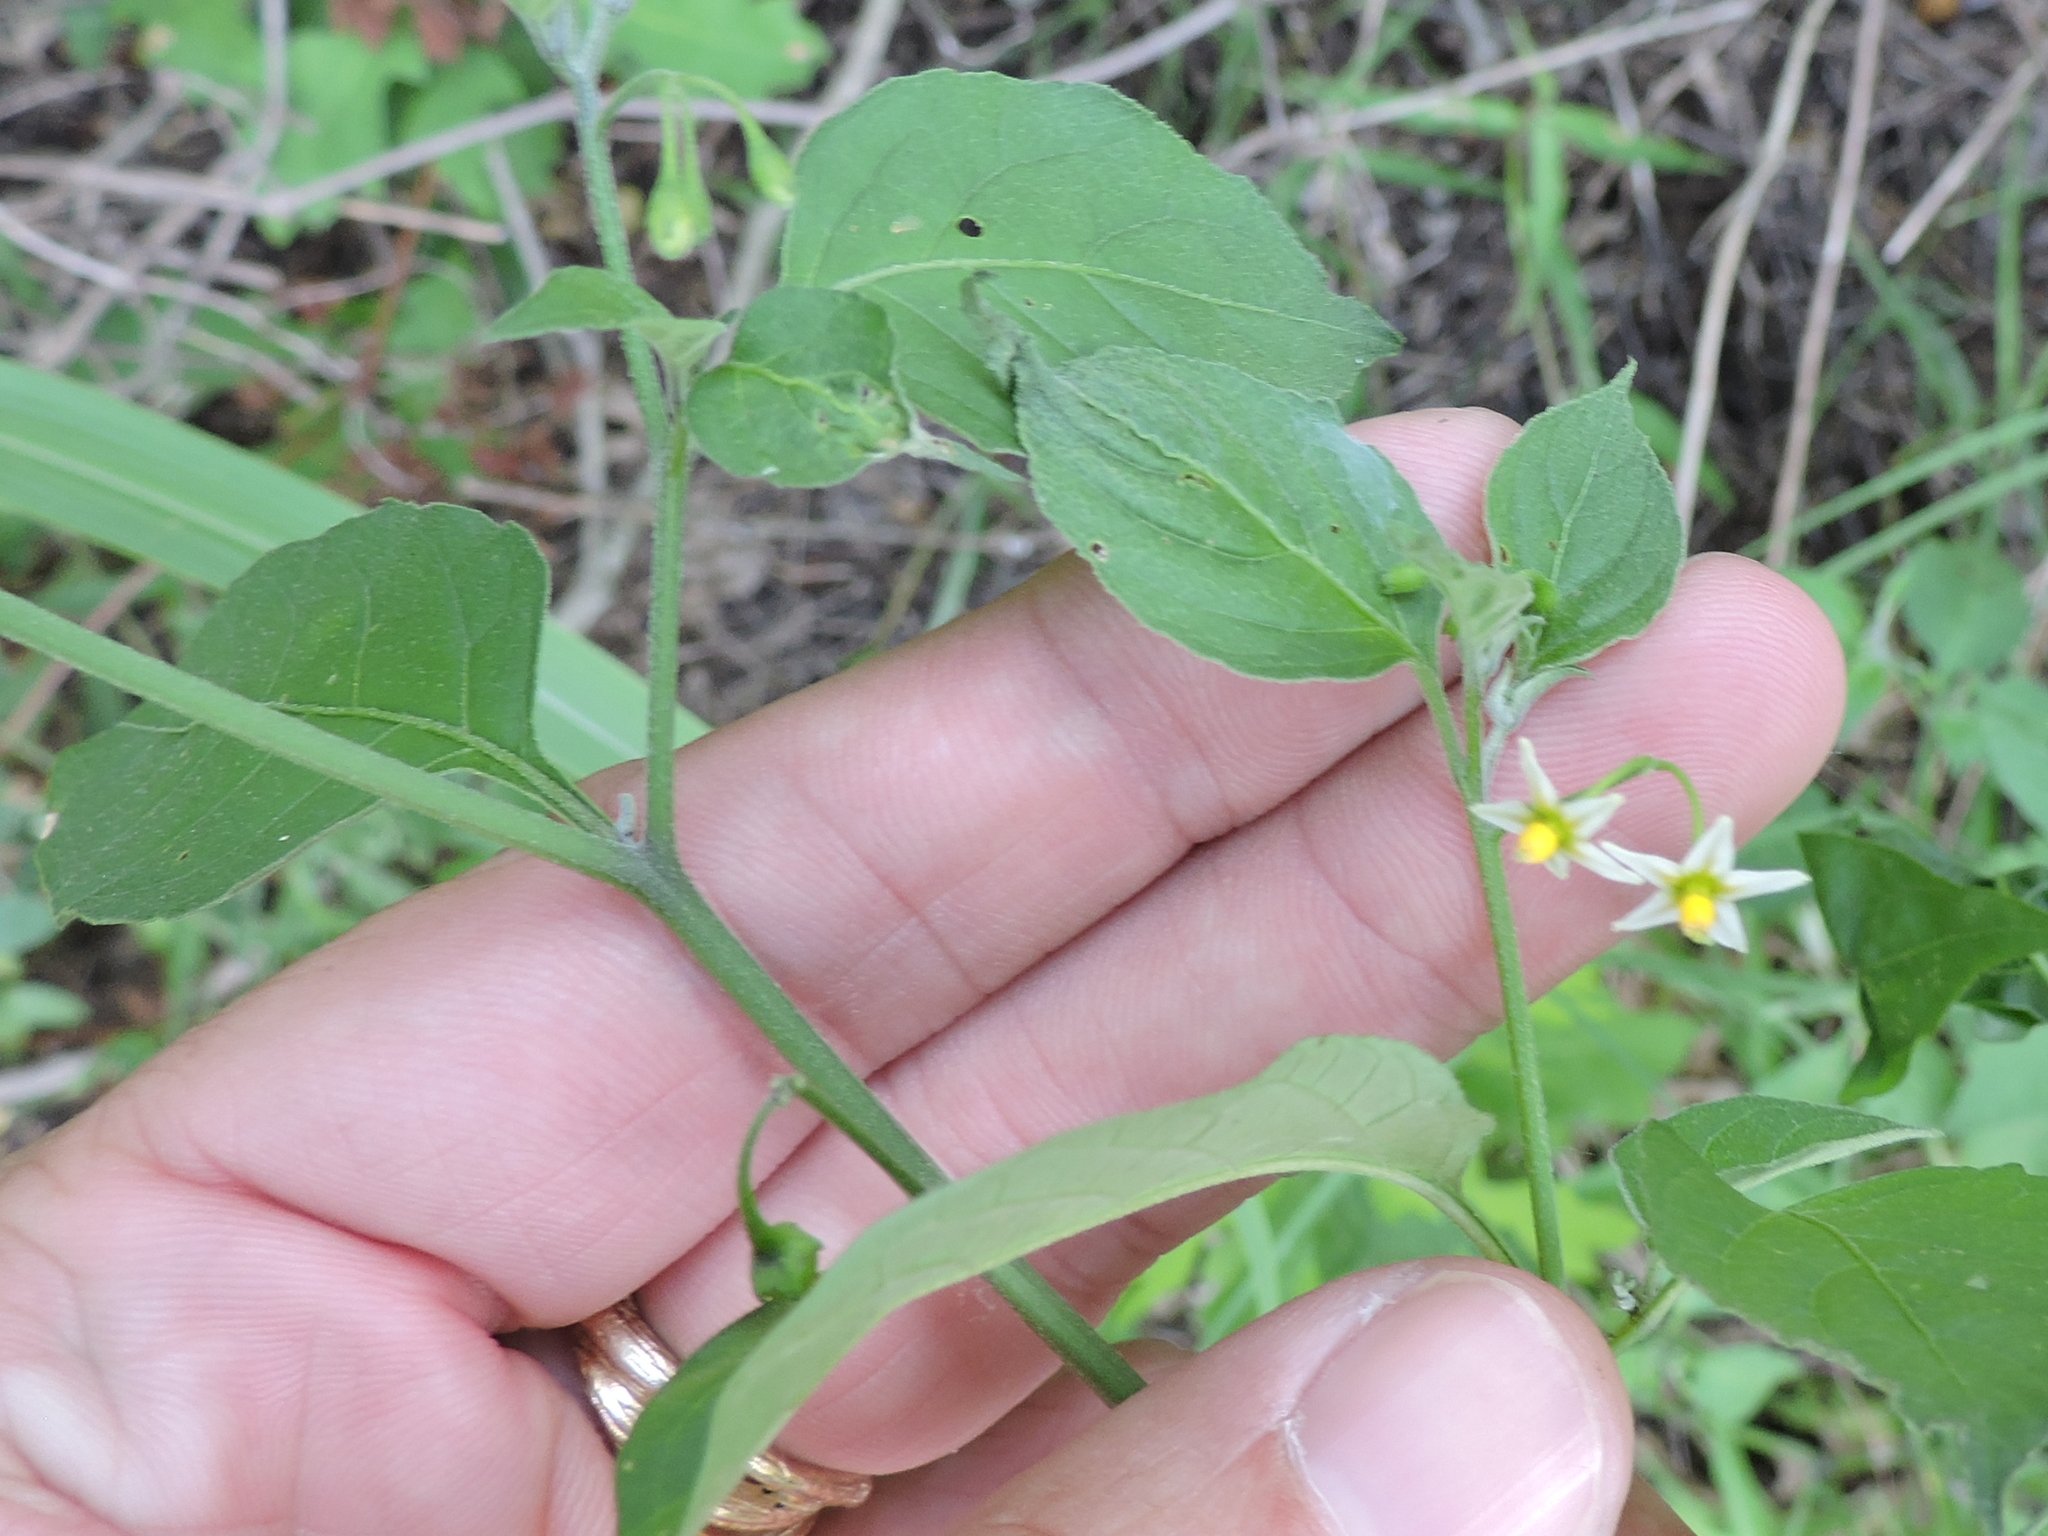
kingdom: Plantae
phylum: Tracheophyta
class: Magnoliopsida
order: Solanales
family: Solanaceae
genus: Solanum
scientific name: Solanum emulans
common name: Eastern black nightshade
